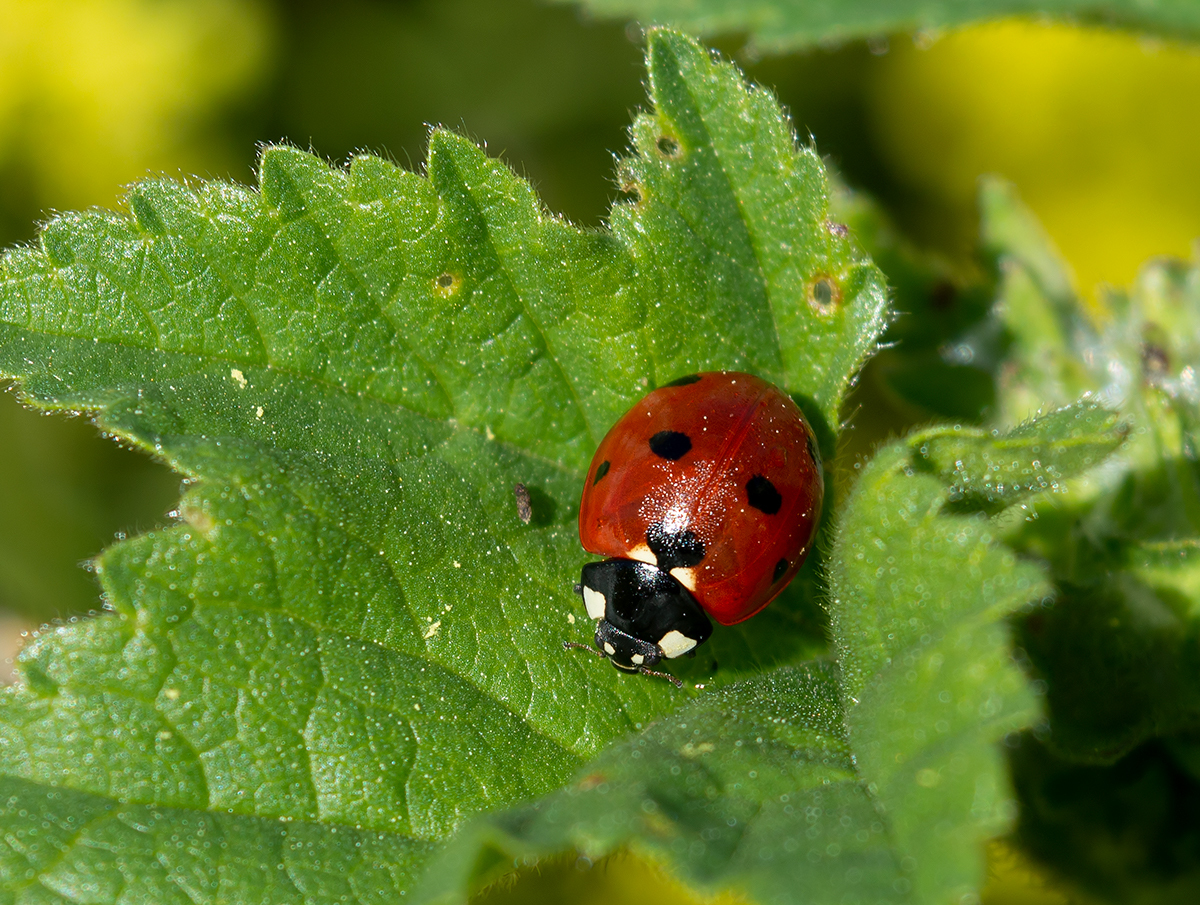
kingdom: Animalia
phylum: Arthropoda
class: Insecta
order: Coleoptera
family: Coccinellidae
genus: Coccinella
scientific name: Coccinella septempunctata
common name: Sevenspotted lady beetle
